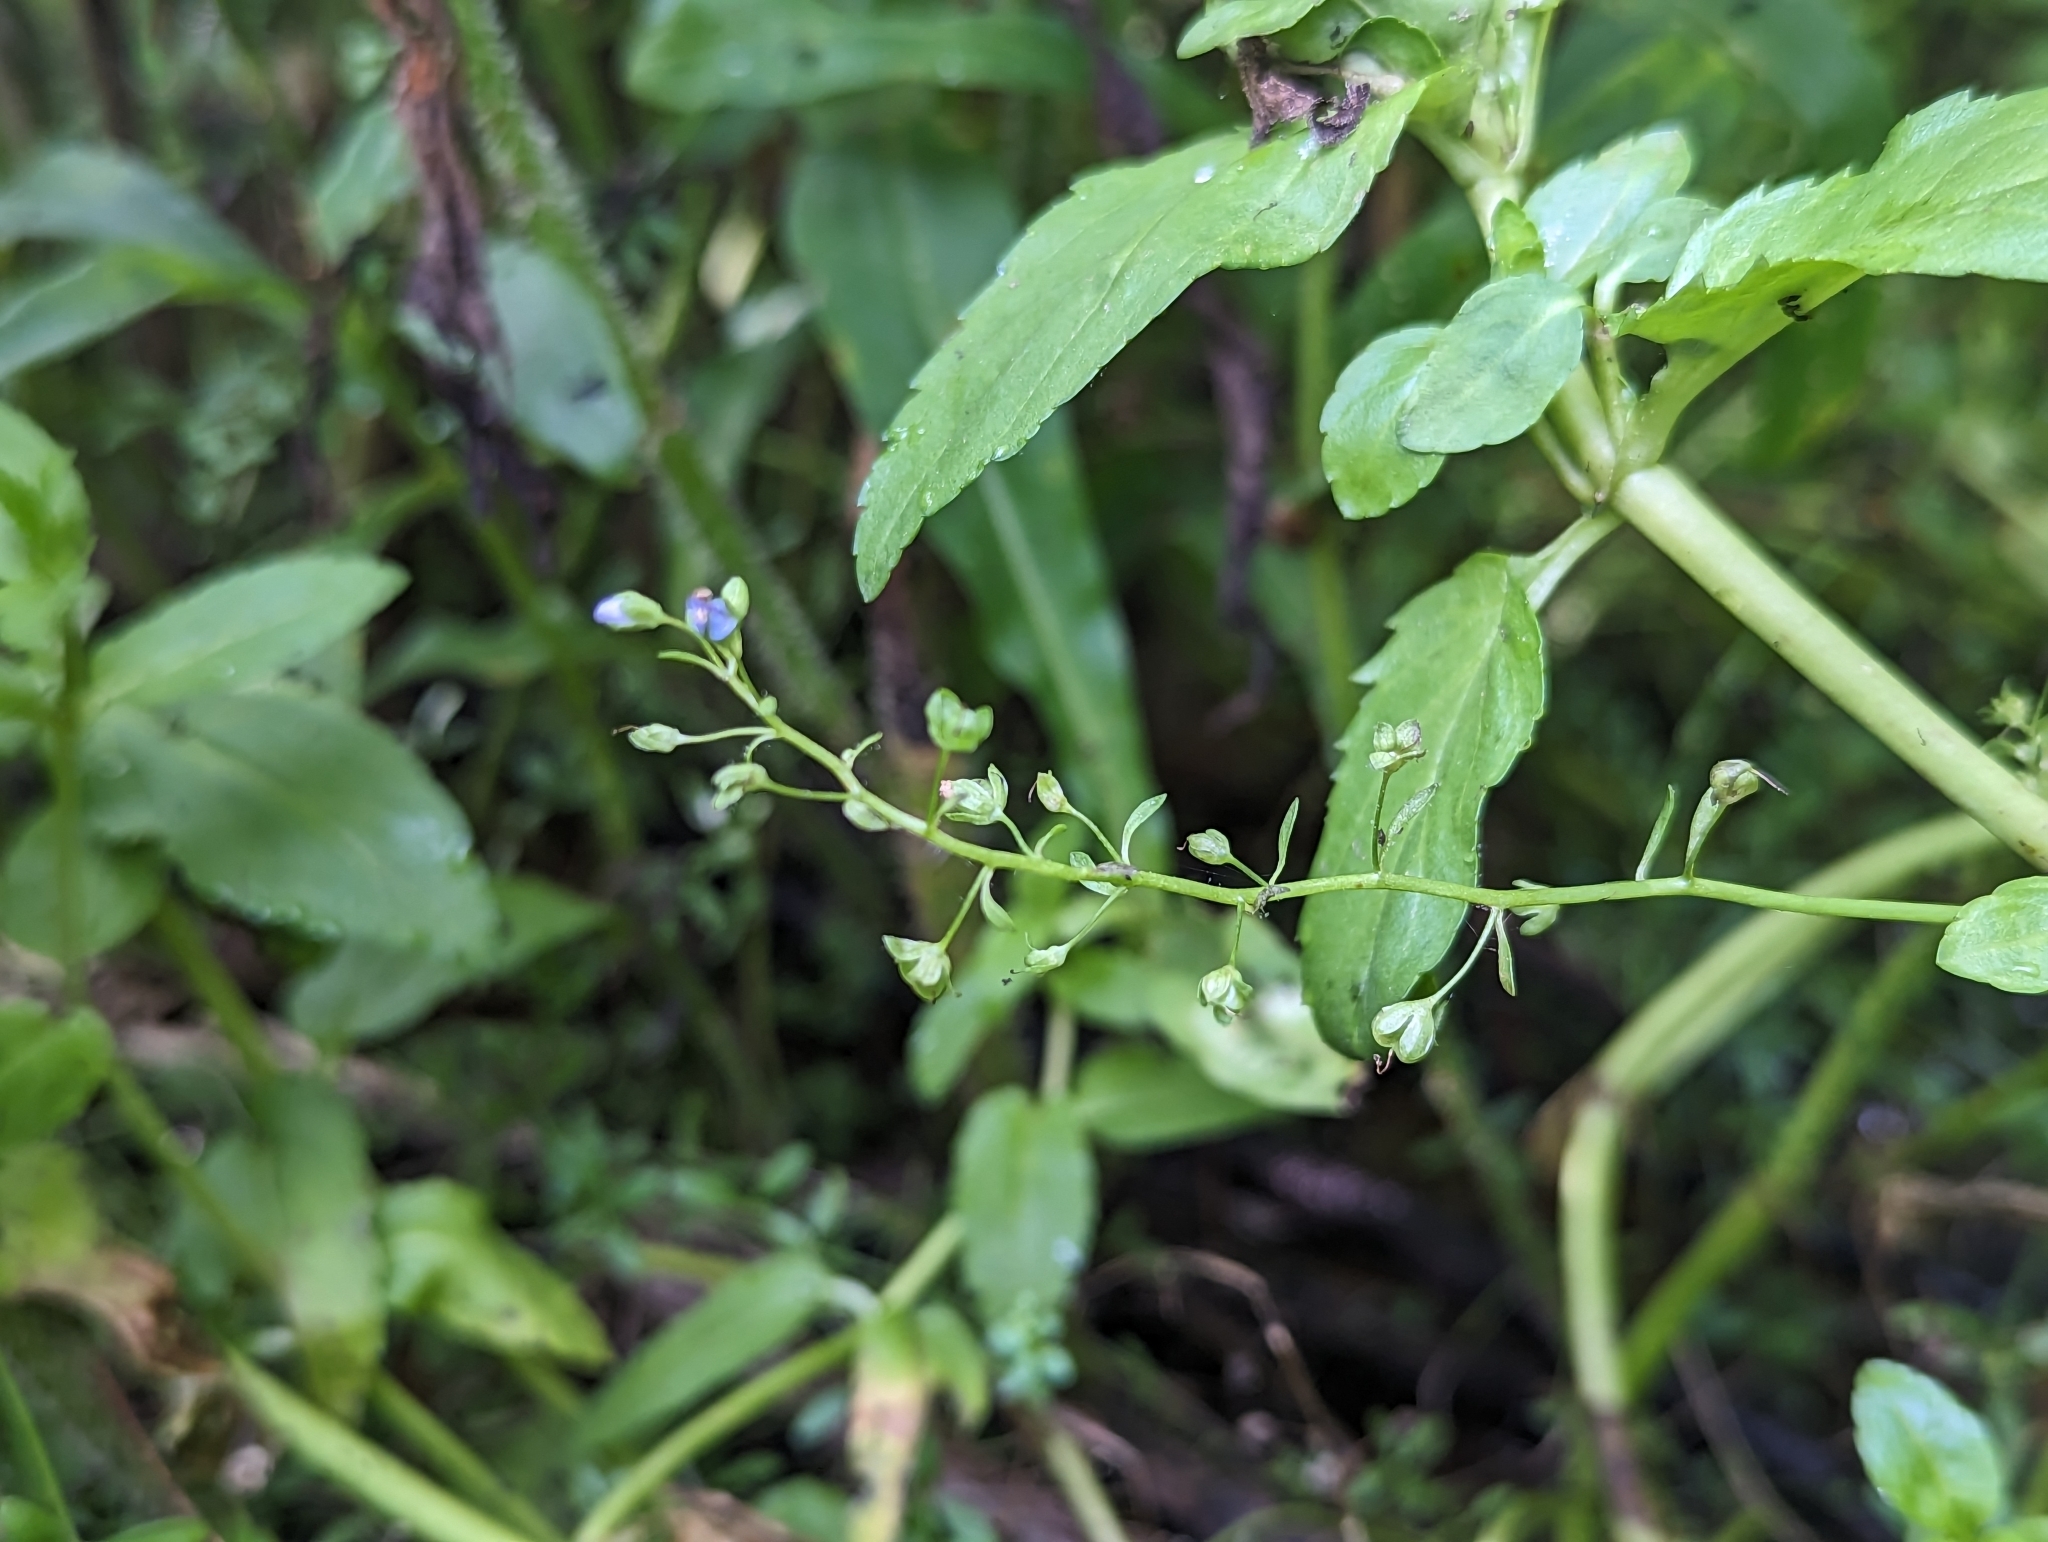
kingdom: Plantae
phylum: Tracheophyta
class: Magnoliopsida
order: Lamiales
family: Plantaginaceae
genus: Veronica
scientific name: Veronica americana
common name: American brooklime
